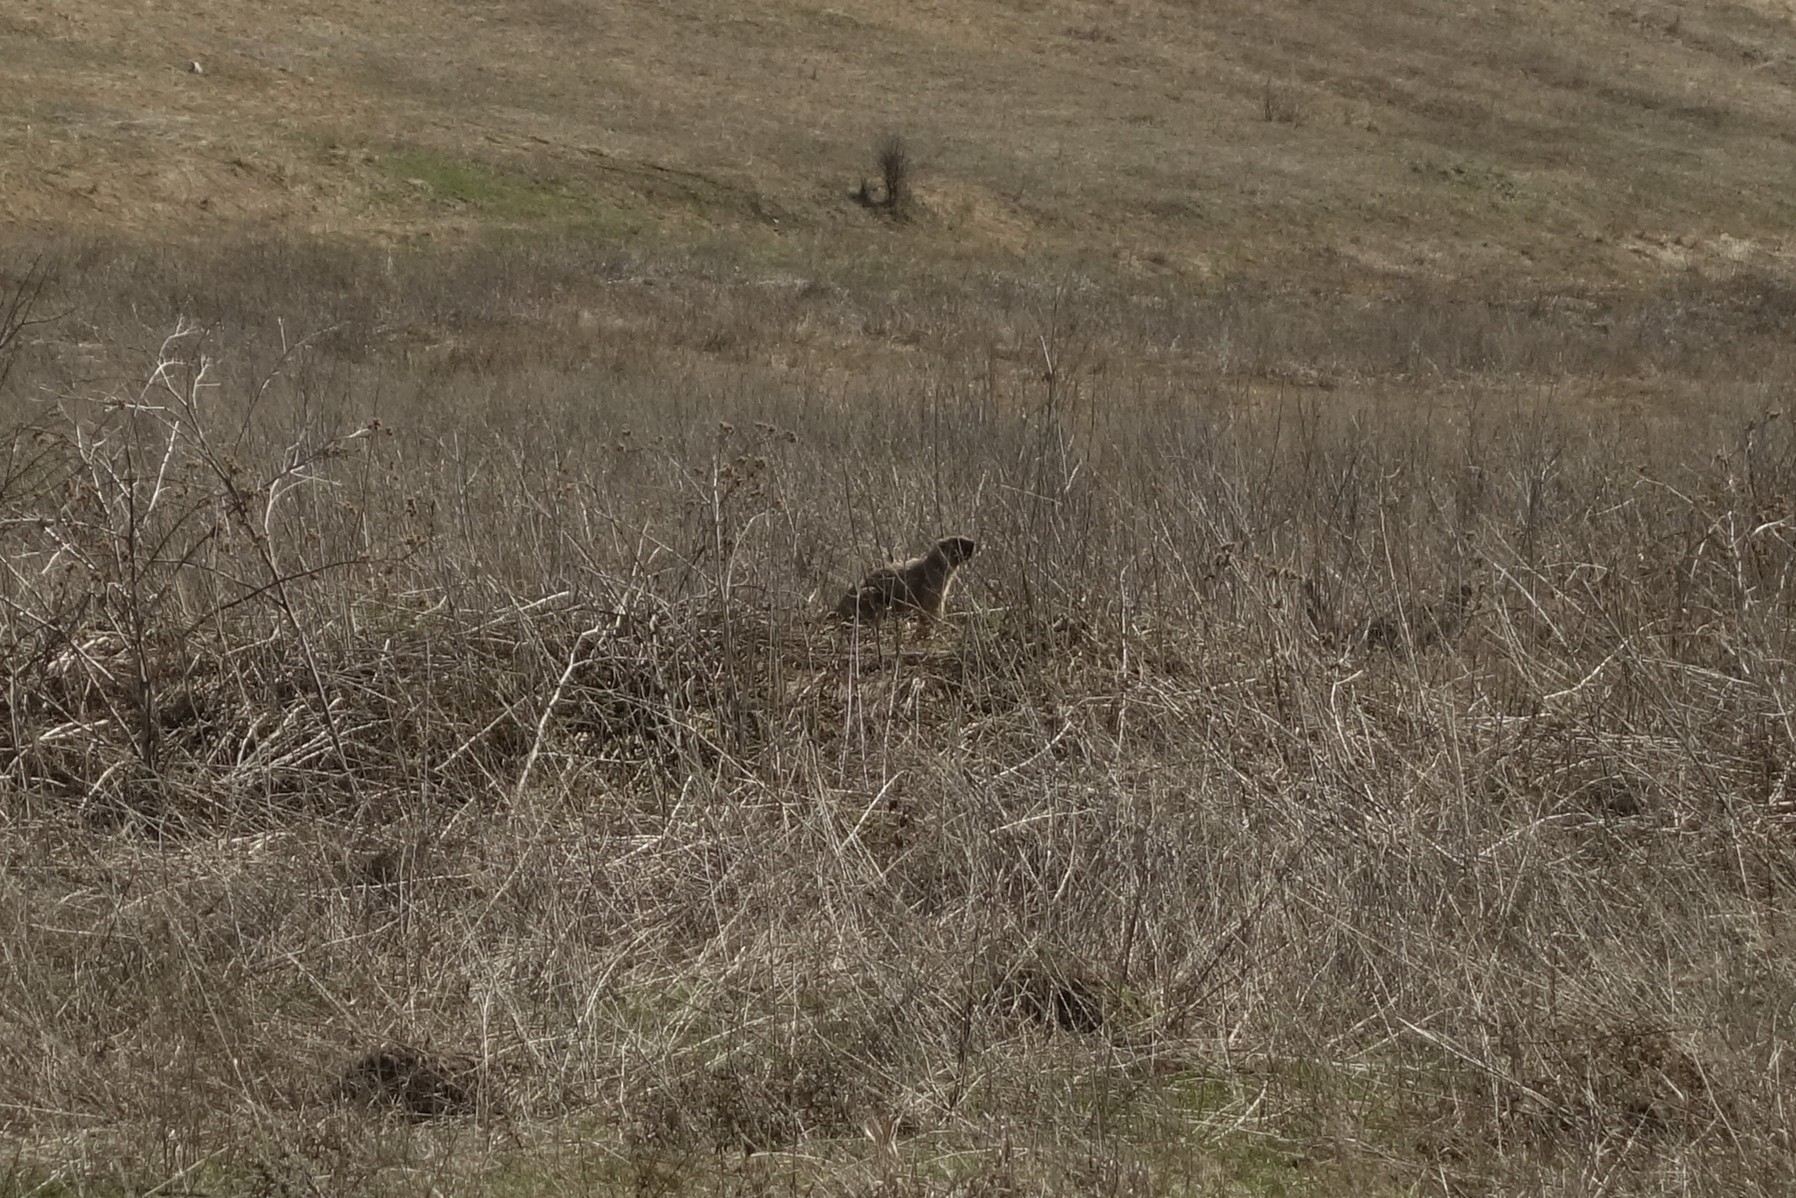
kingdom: Animalia
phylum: Chordata
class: Mammalia
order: Rodentia
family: Sciuridae
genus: Marmota
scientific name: Marmota bobak
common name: Bobak marmot
